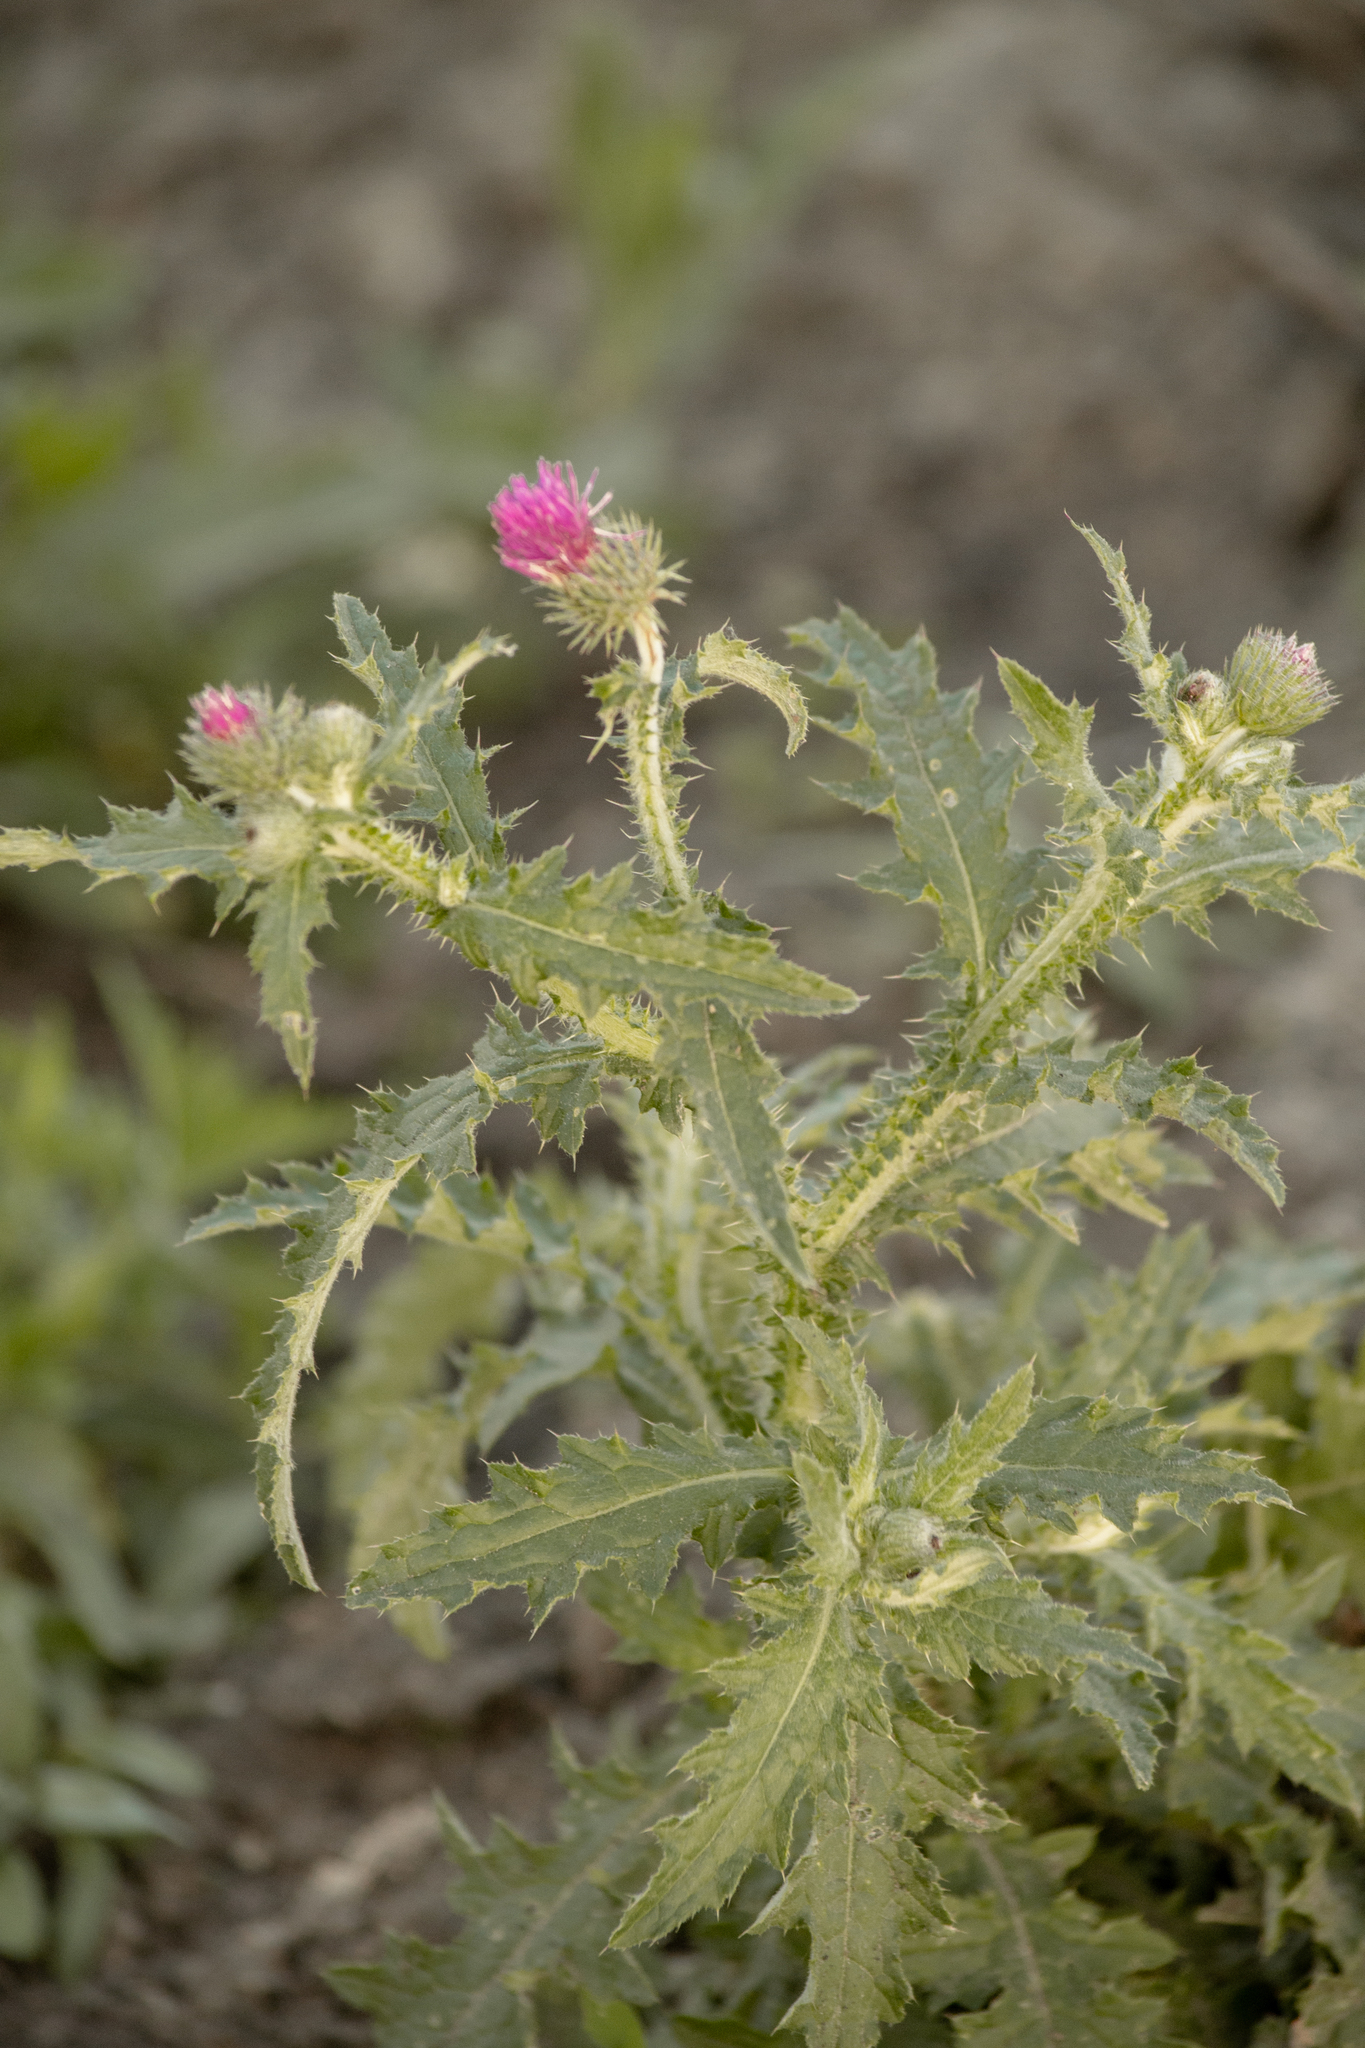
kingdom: Plantae
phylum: Tracheophyta
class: Magnoliopsida
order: Asterales
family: Asteraceae
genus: Carduus
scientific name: Carduus crispus
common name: Welted thistle
